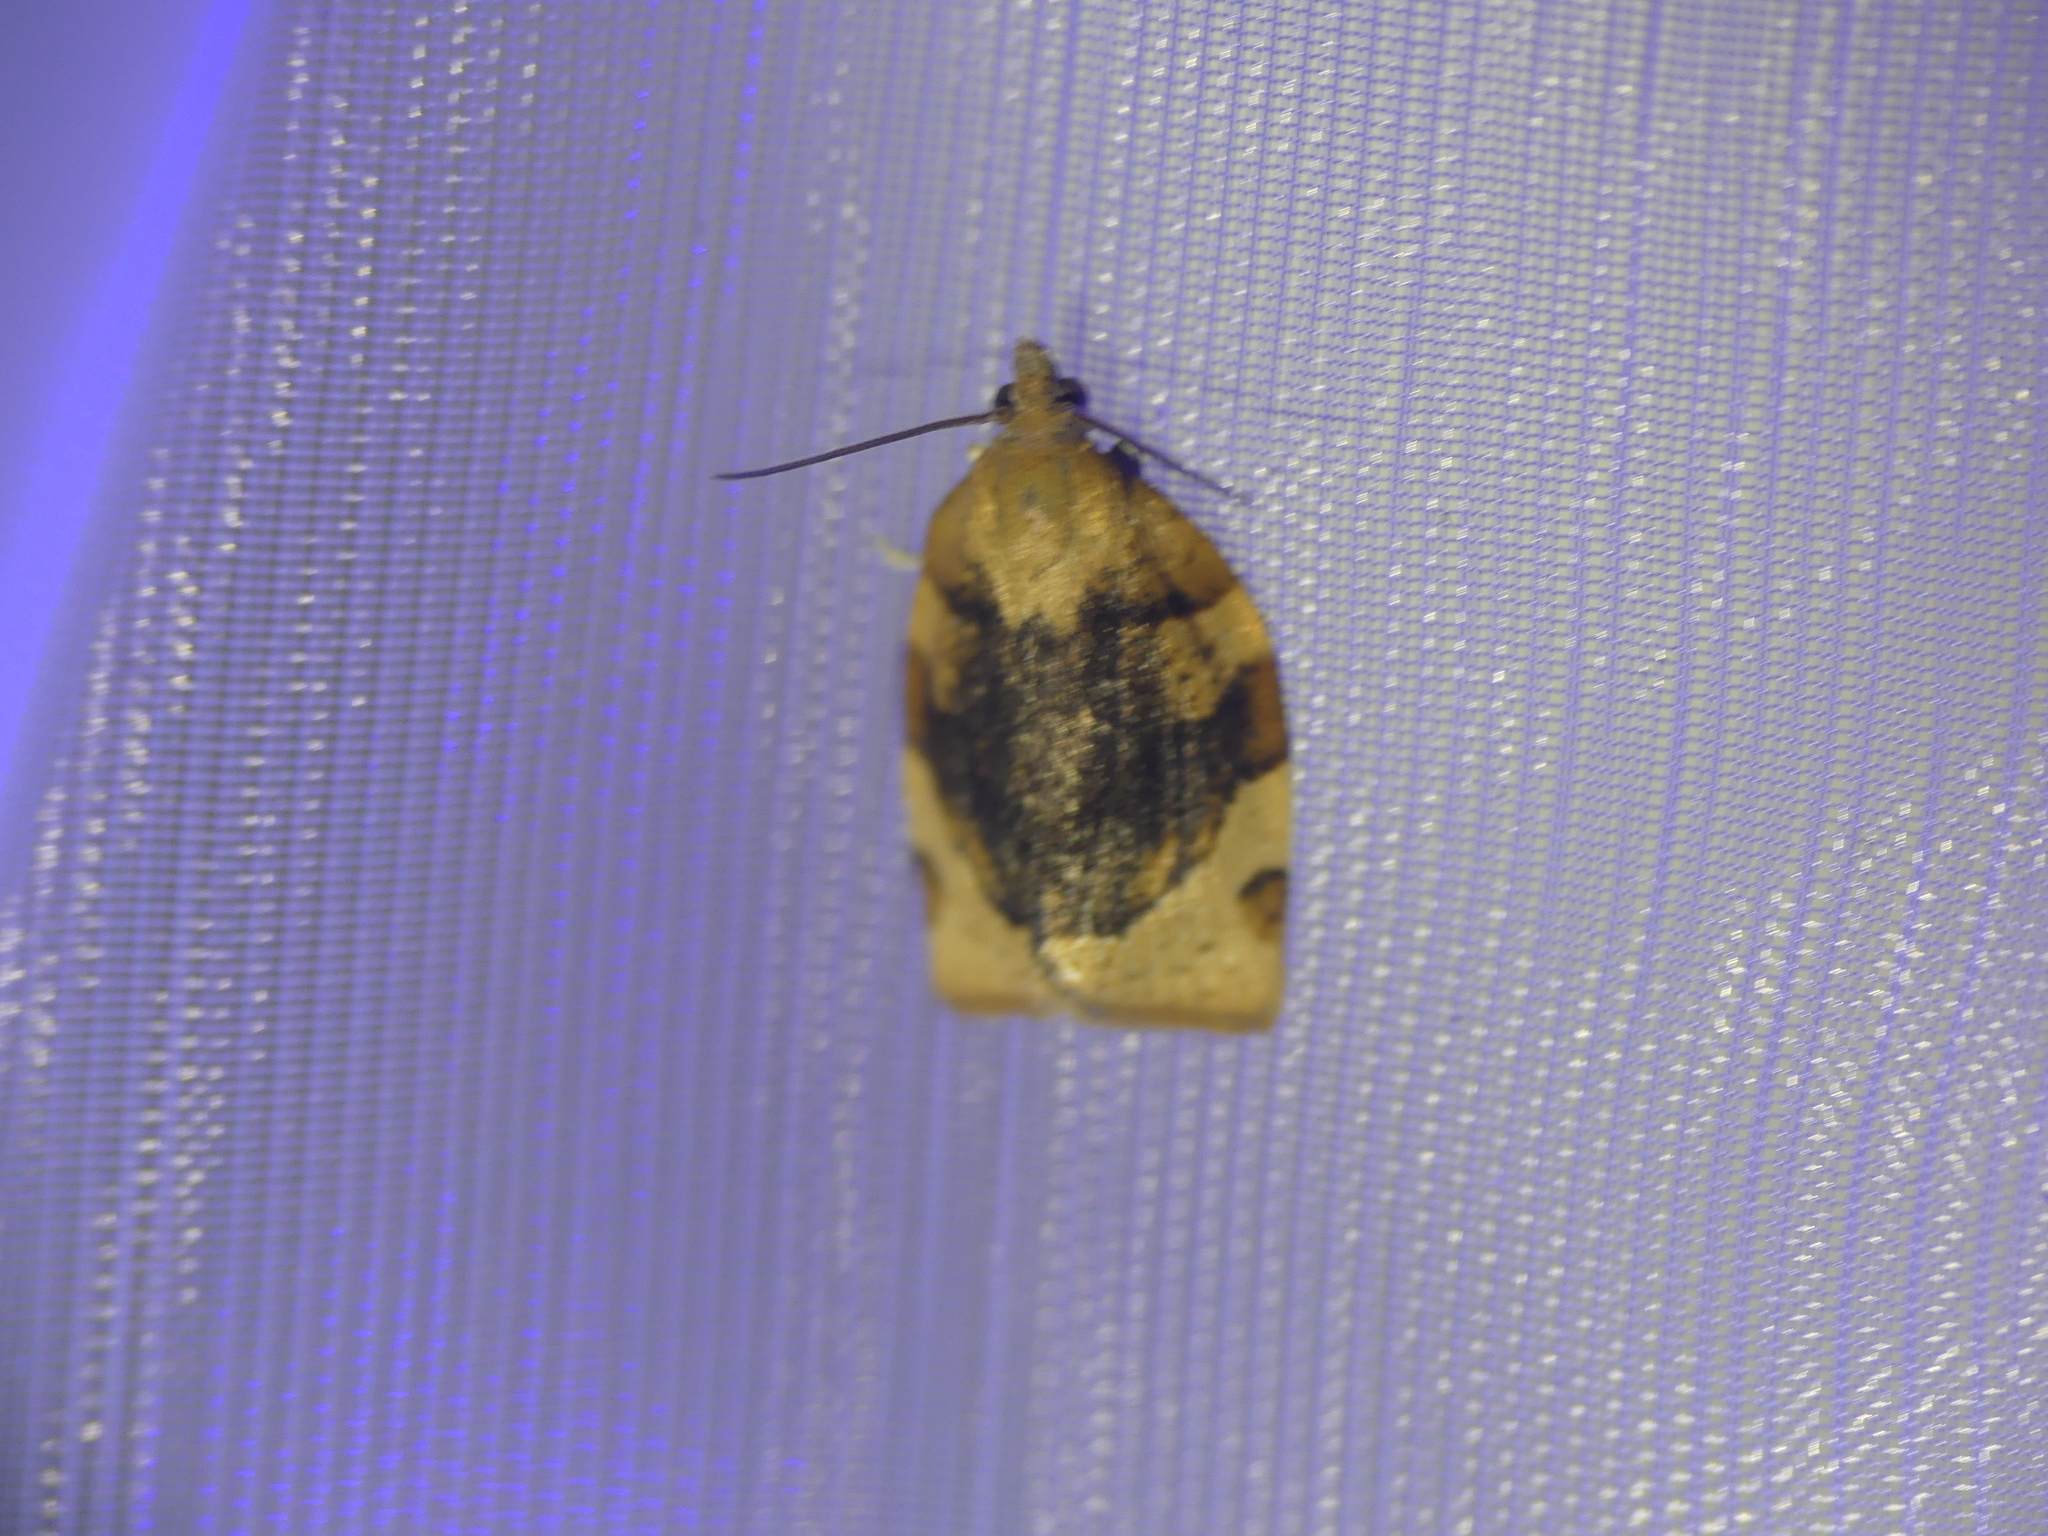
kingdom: Animalia
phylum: Arthropoda
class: Insecta
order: Lepidoptera
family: Tortricidae
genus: Pandemis
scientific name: Pandemis cerasana
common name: Barred fruit-tree tortrix
